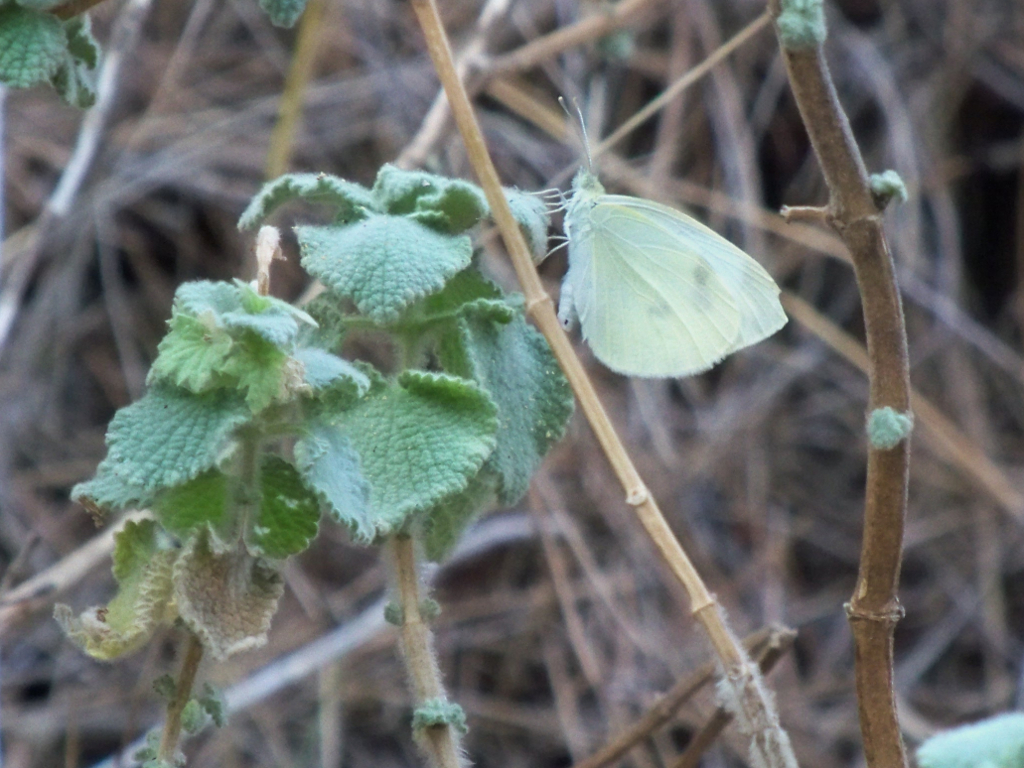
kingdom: Animalia
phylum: Arthropoda
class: Insecta
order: Lepidoptera
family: Pieridae
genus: Pieris
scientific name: Pieris rapae
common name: Small white
